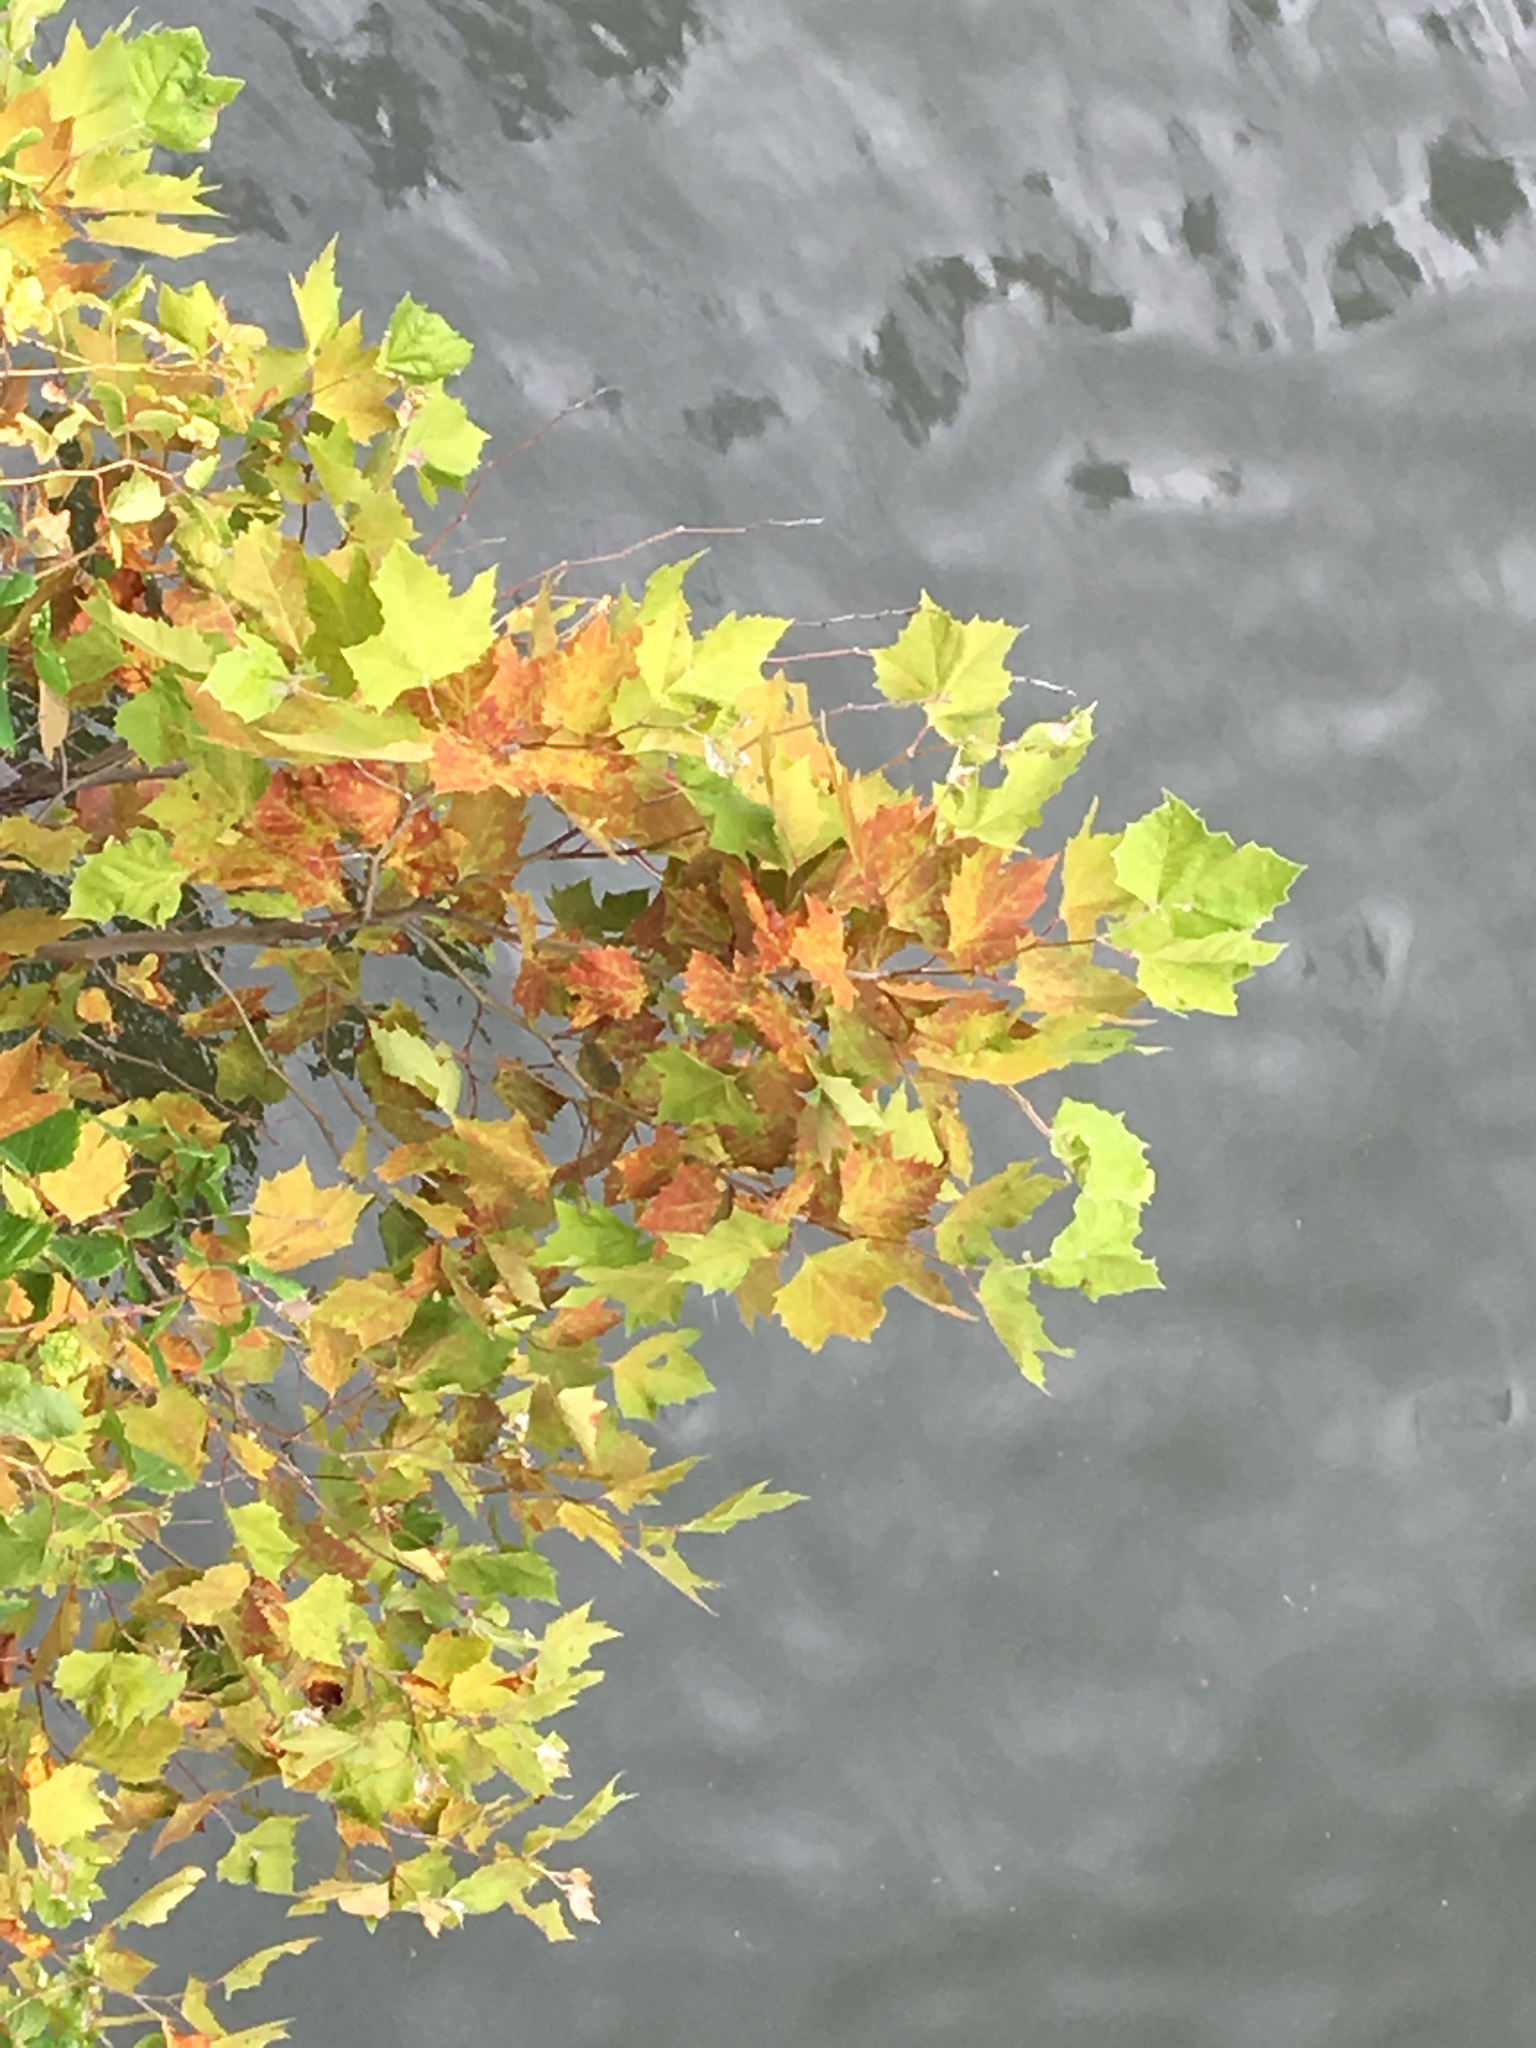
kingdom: Plantae
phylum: Tracheophyta
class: Magnoliopsida
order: Proteales
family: Platanaceae
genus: Platanus
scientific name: Platanus occidentalis
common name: American sycamore
